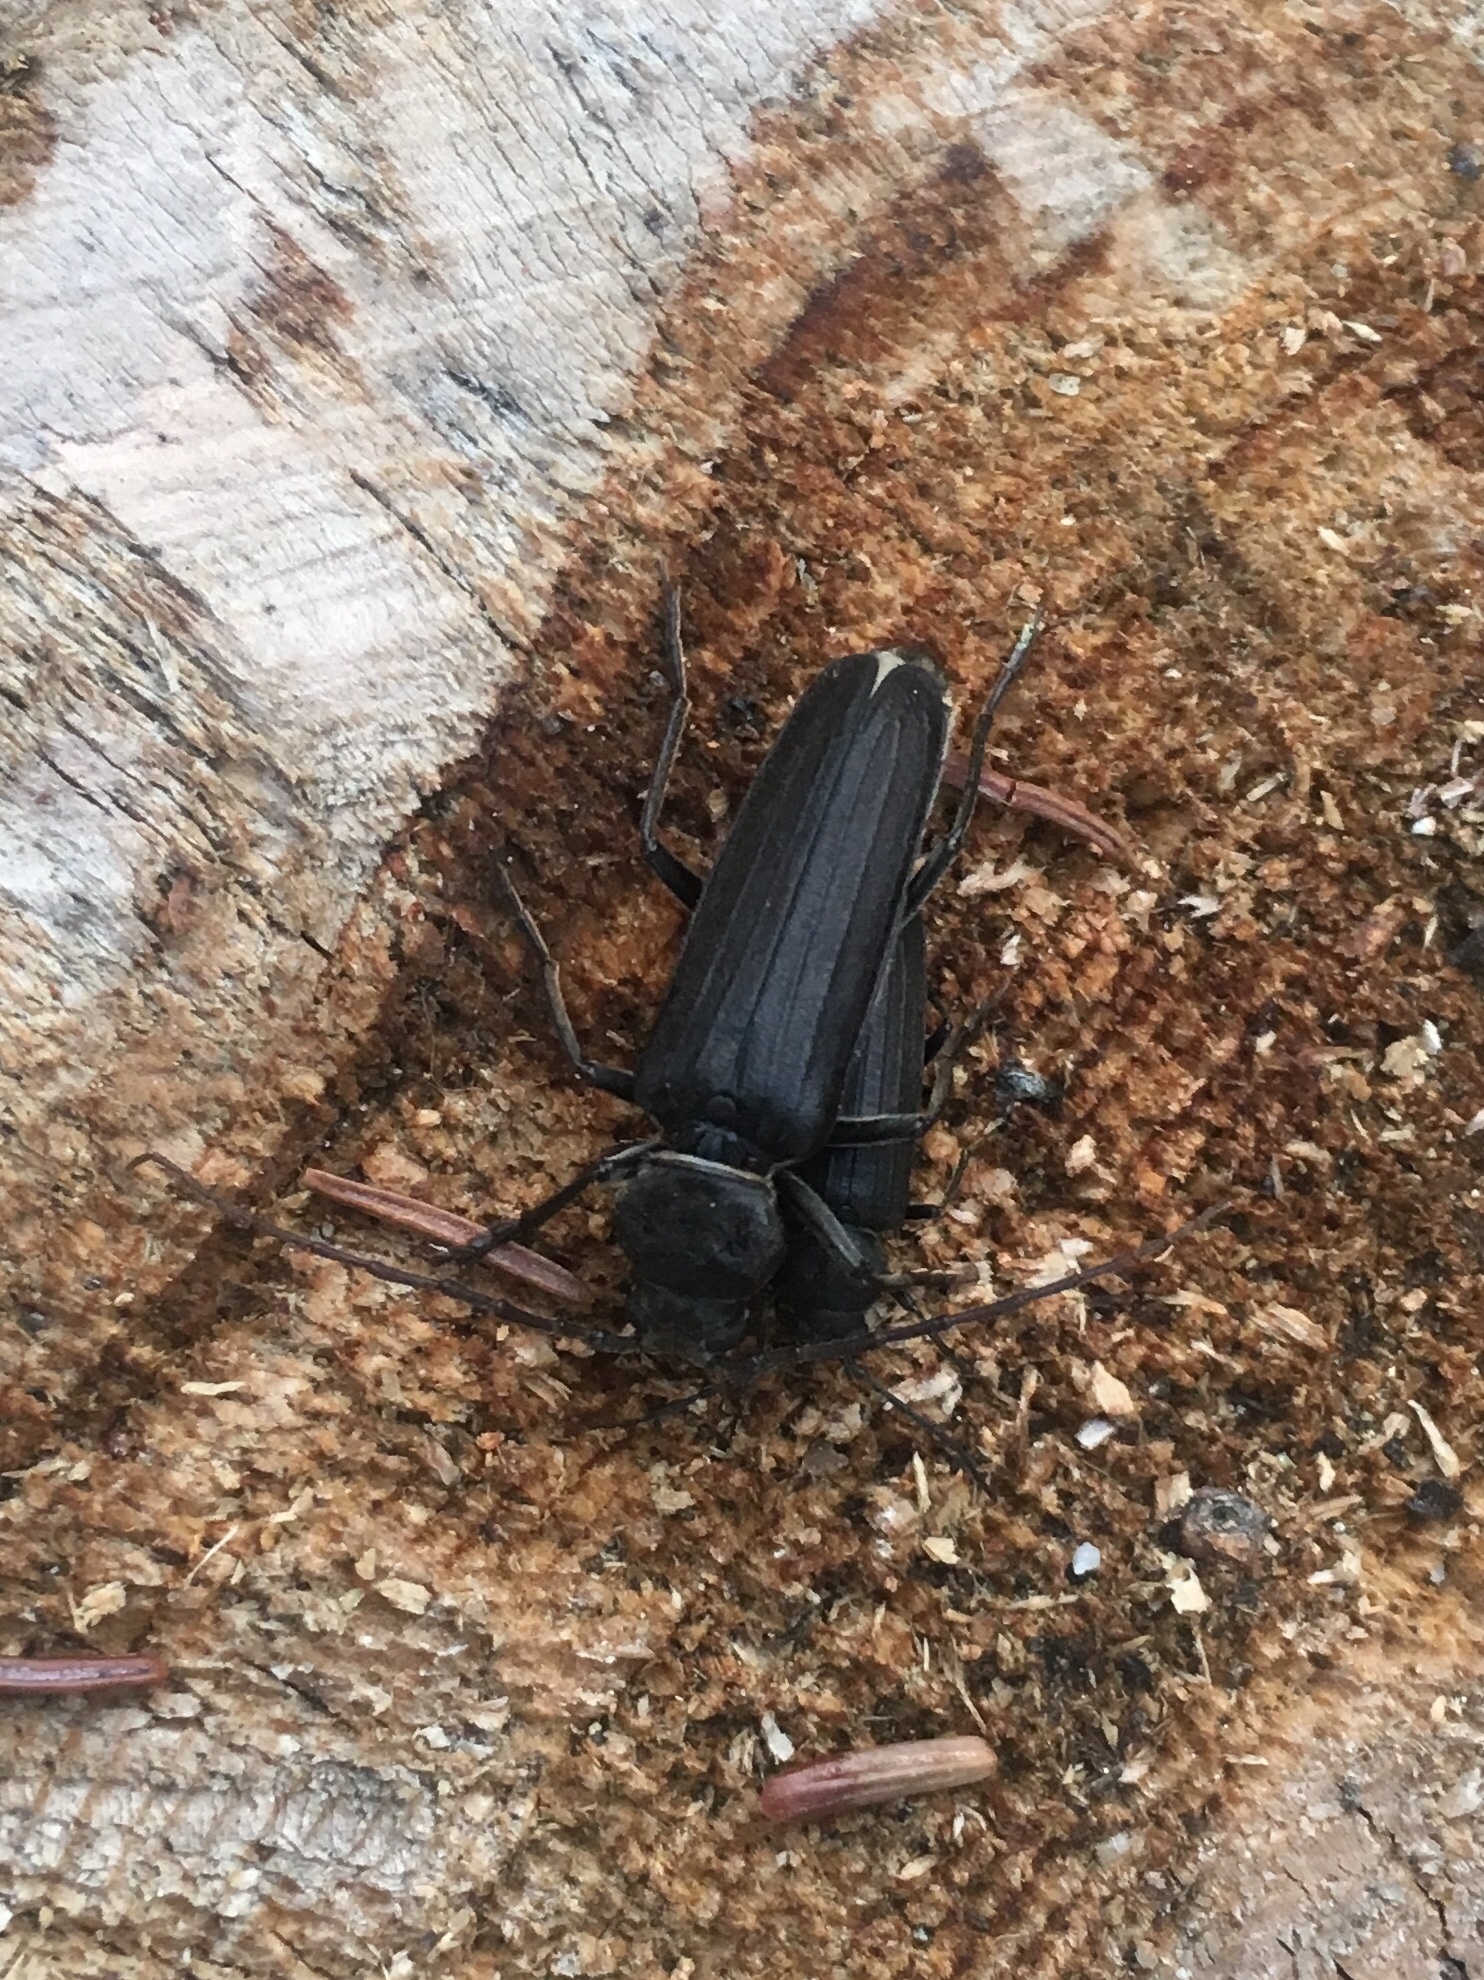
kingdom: Animalia
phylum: Arthropoda
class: Insecta
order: Coleoptera
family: Cerambycidae
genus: Arhopalus
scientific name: Arhopalus asperatus
